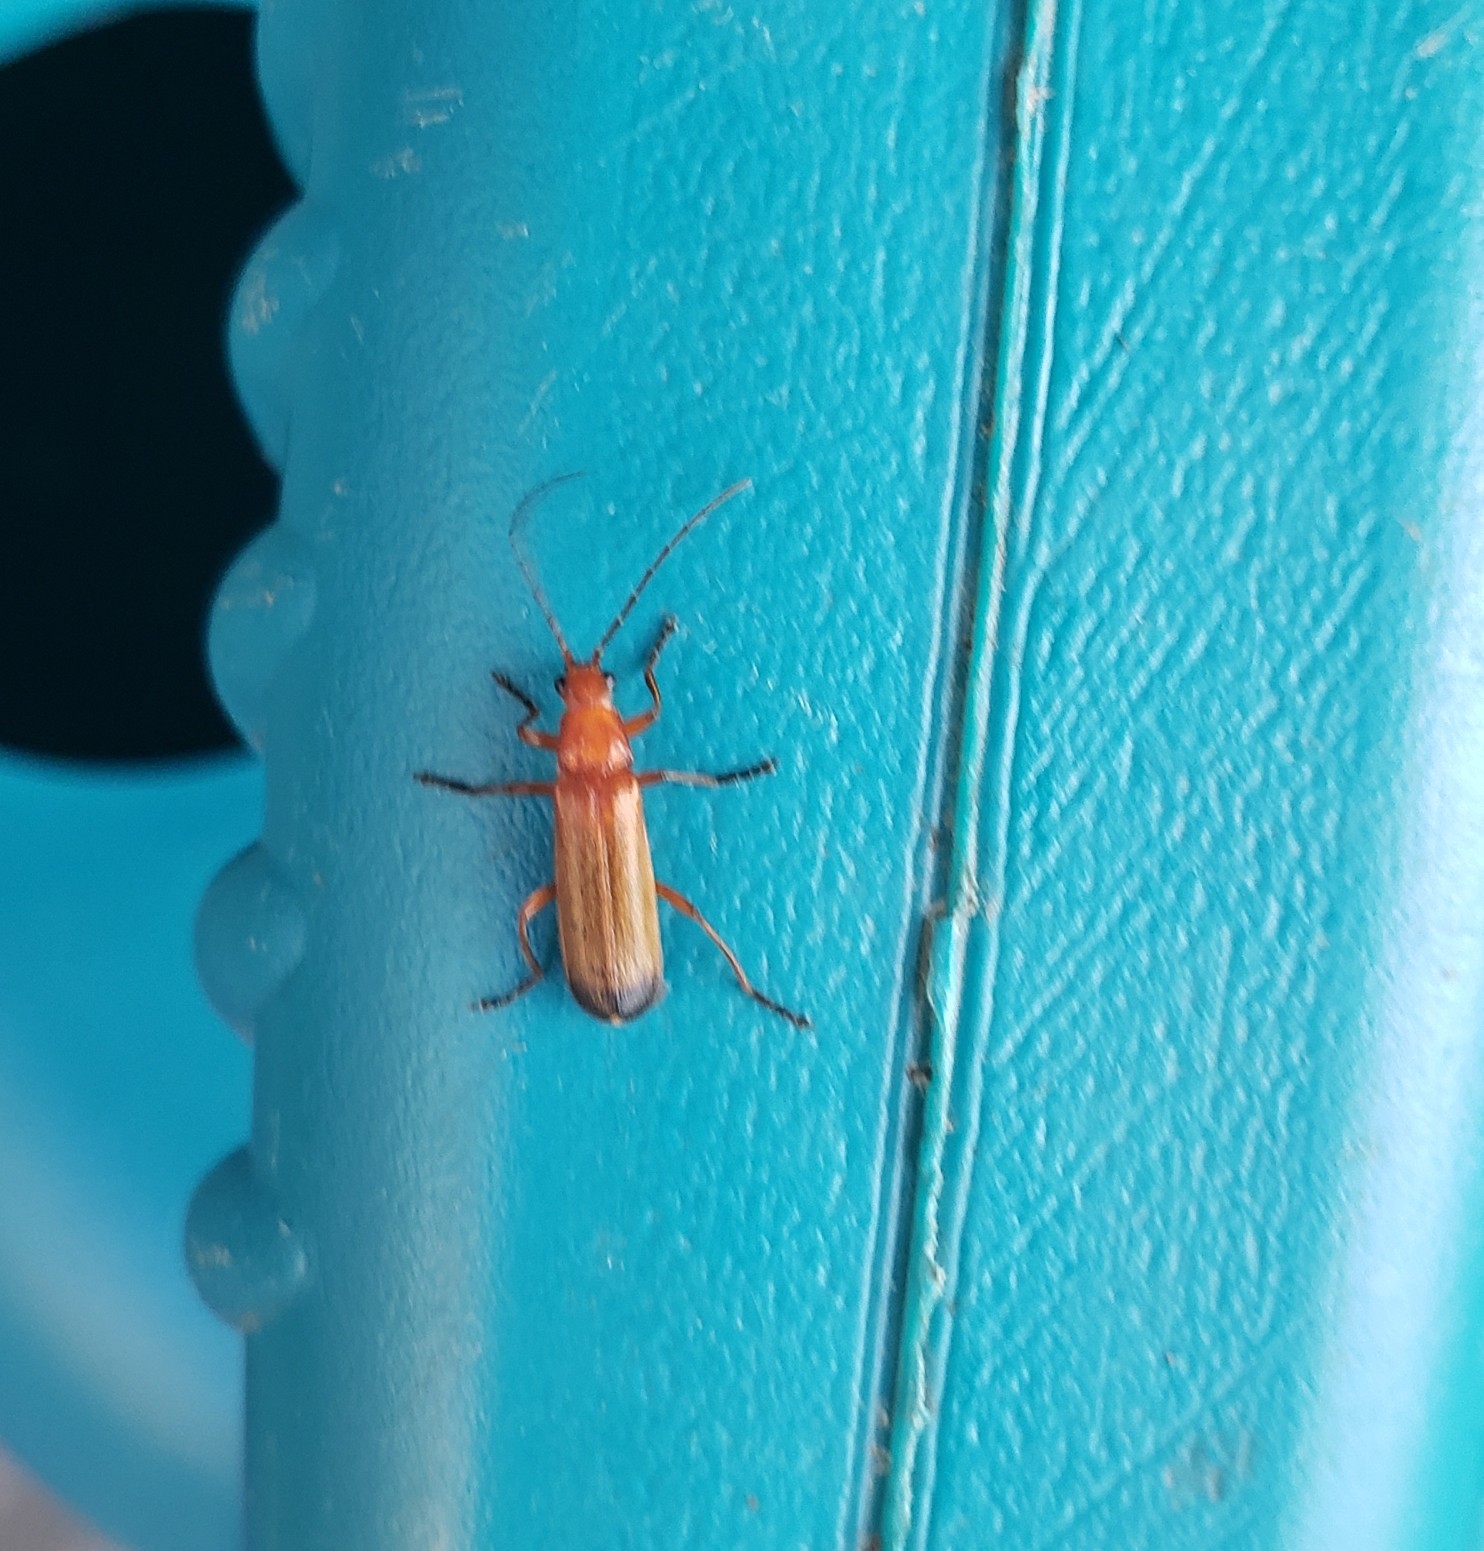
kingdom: Animalia
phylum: Arthropoda
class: Insecta
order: Coleoptera
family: Cantharidae
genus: Rhagonycha
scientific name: Rhagonycha fulva
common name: Common red soldier beetle
